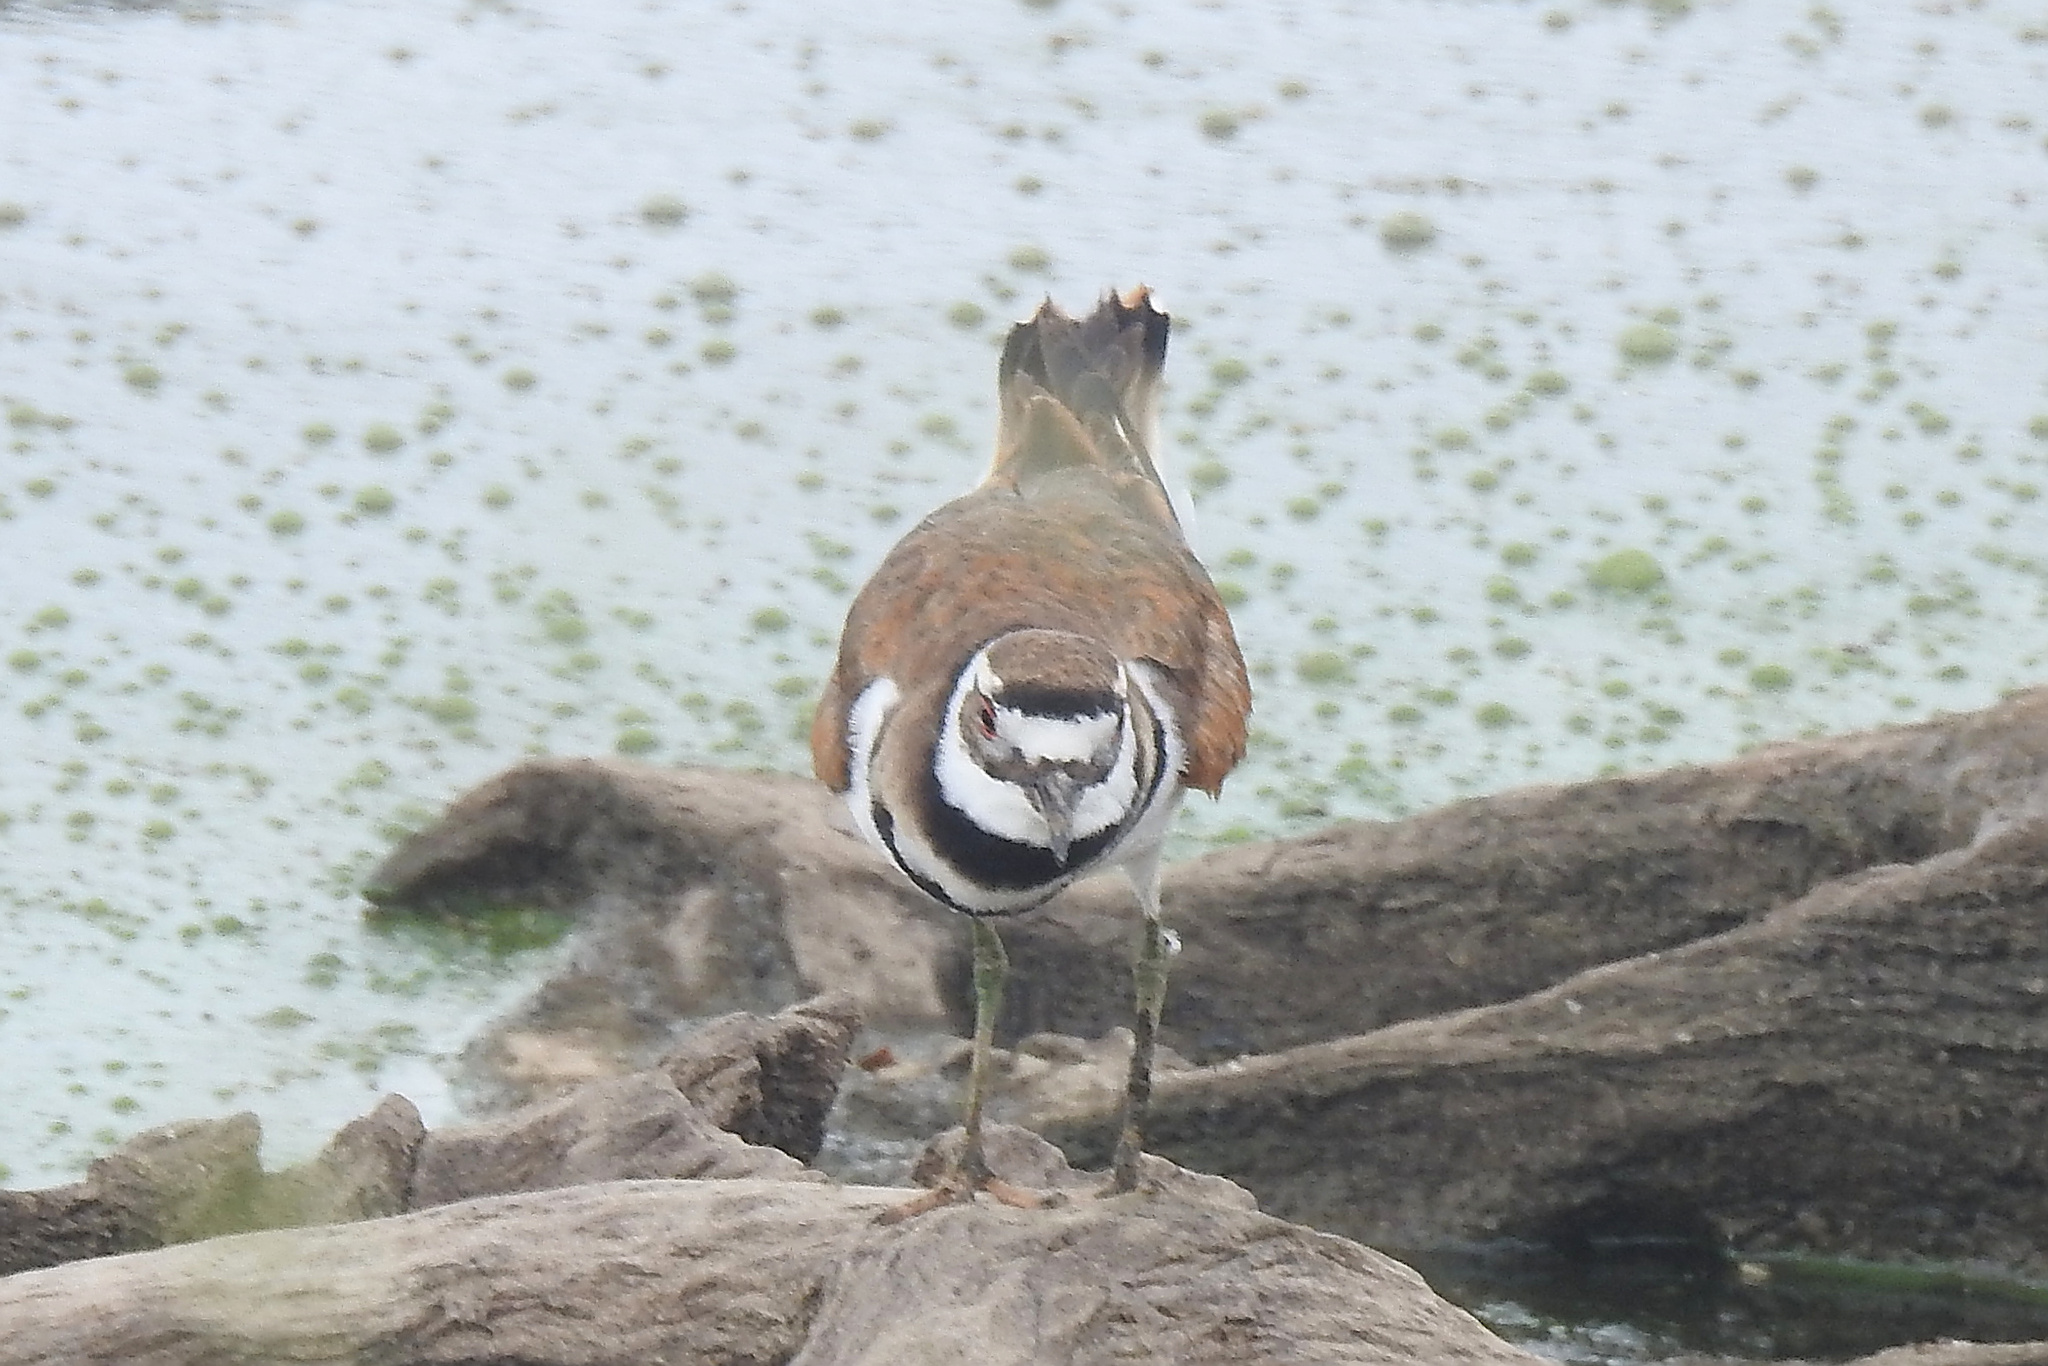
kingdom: Animalia
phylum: Chordata
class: Aves
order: Charadriiformes
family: Charadriidae
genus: Charadrius
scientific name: Charadrius vociferus
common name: Killdeer
